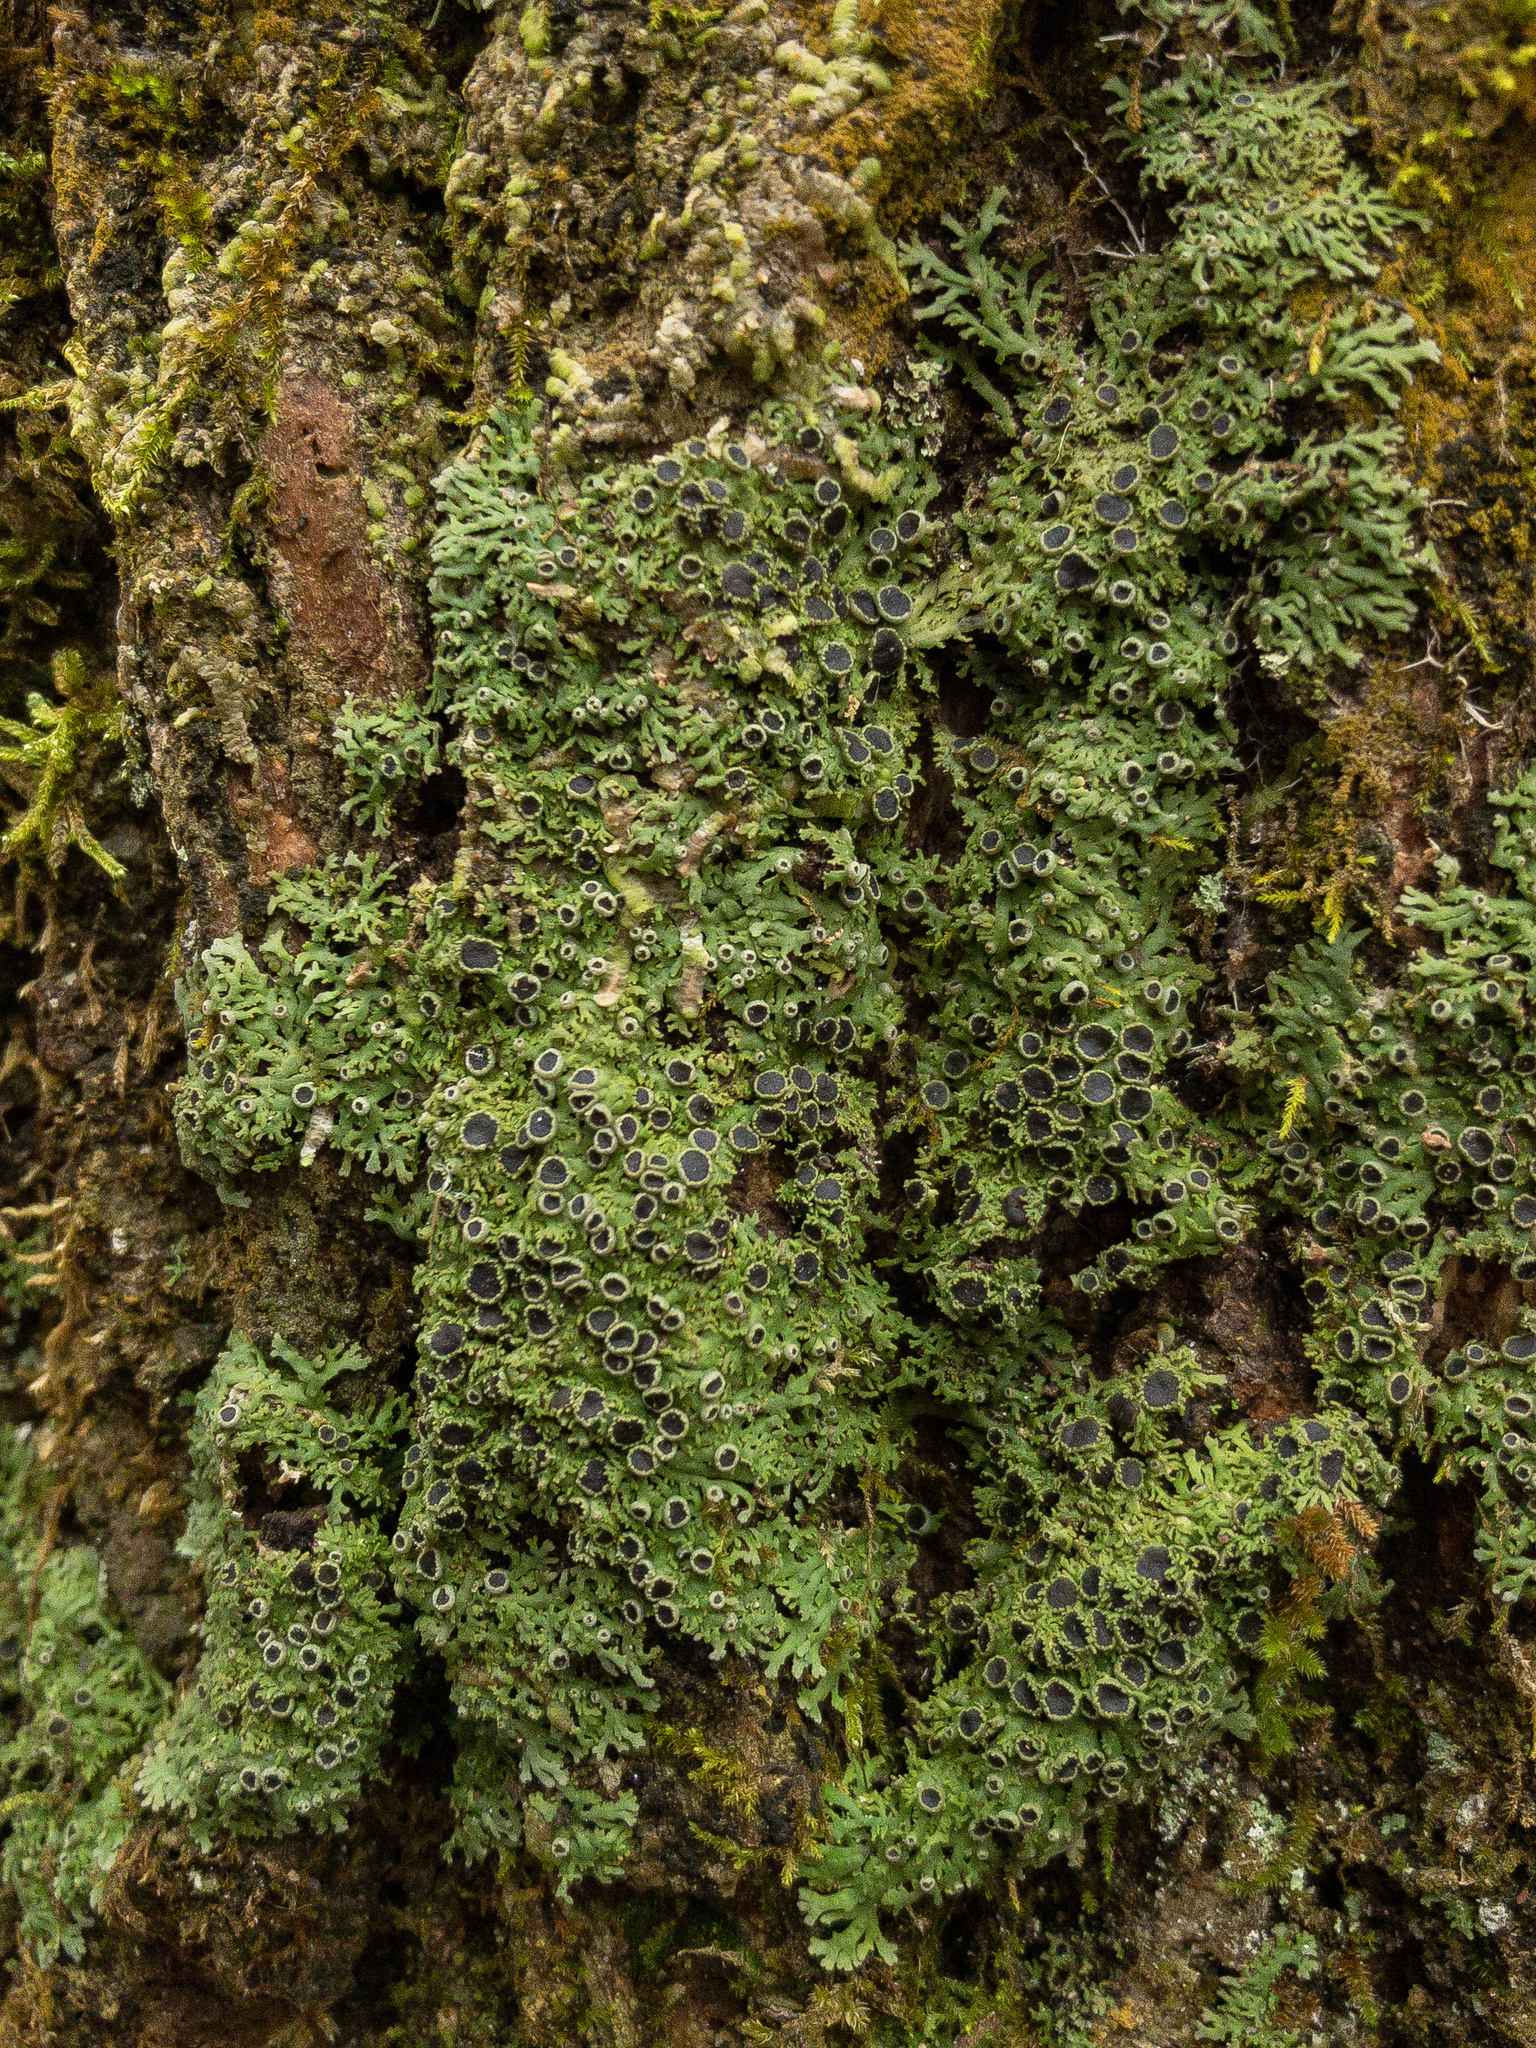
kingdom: Fungi
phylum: Ascomycota
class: Lecanoromycetes
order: Caliciales
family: Physciaceae
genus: Kurokawia
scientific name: Kurokawia palmulata
